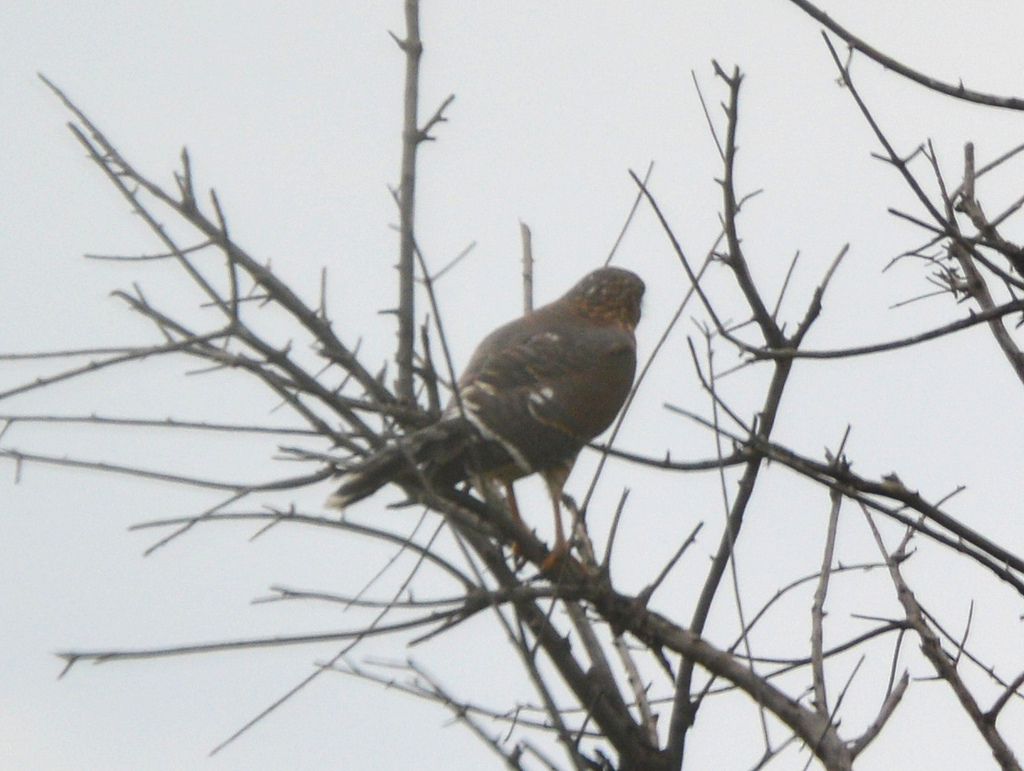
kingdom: Animalia
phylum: Chordata
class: Aves
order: Accipitriformes
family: Accipitridae
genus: Micronisus
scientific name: Micronisus gabar
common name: Gabar goshawk
